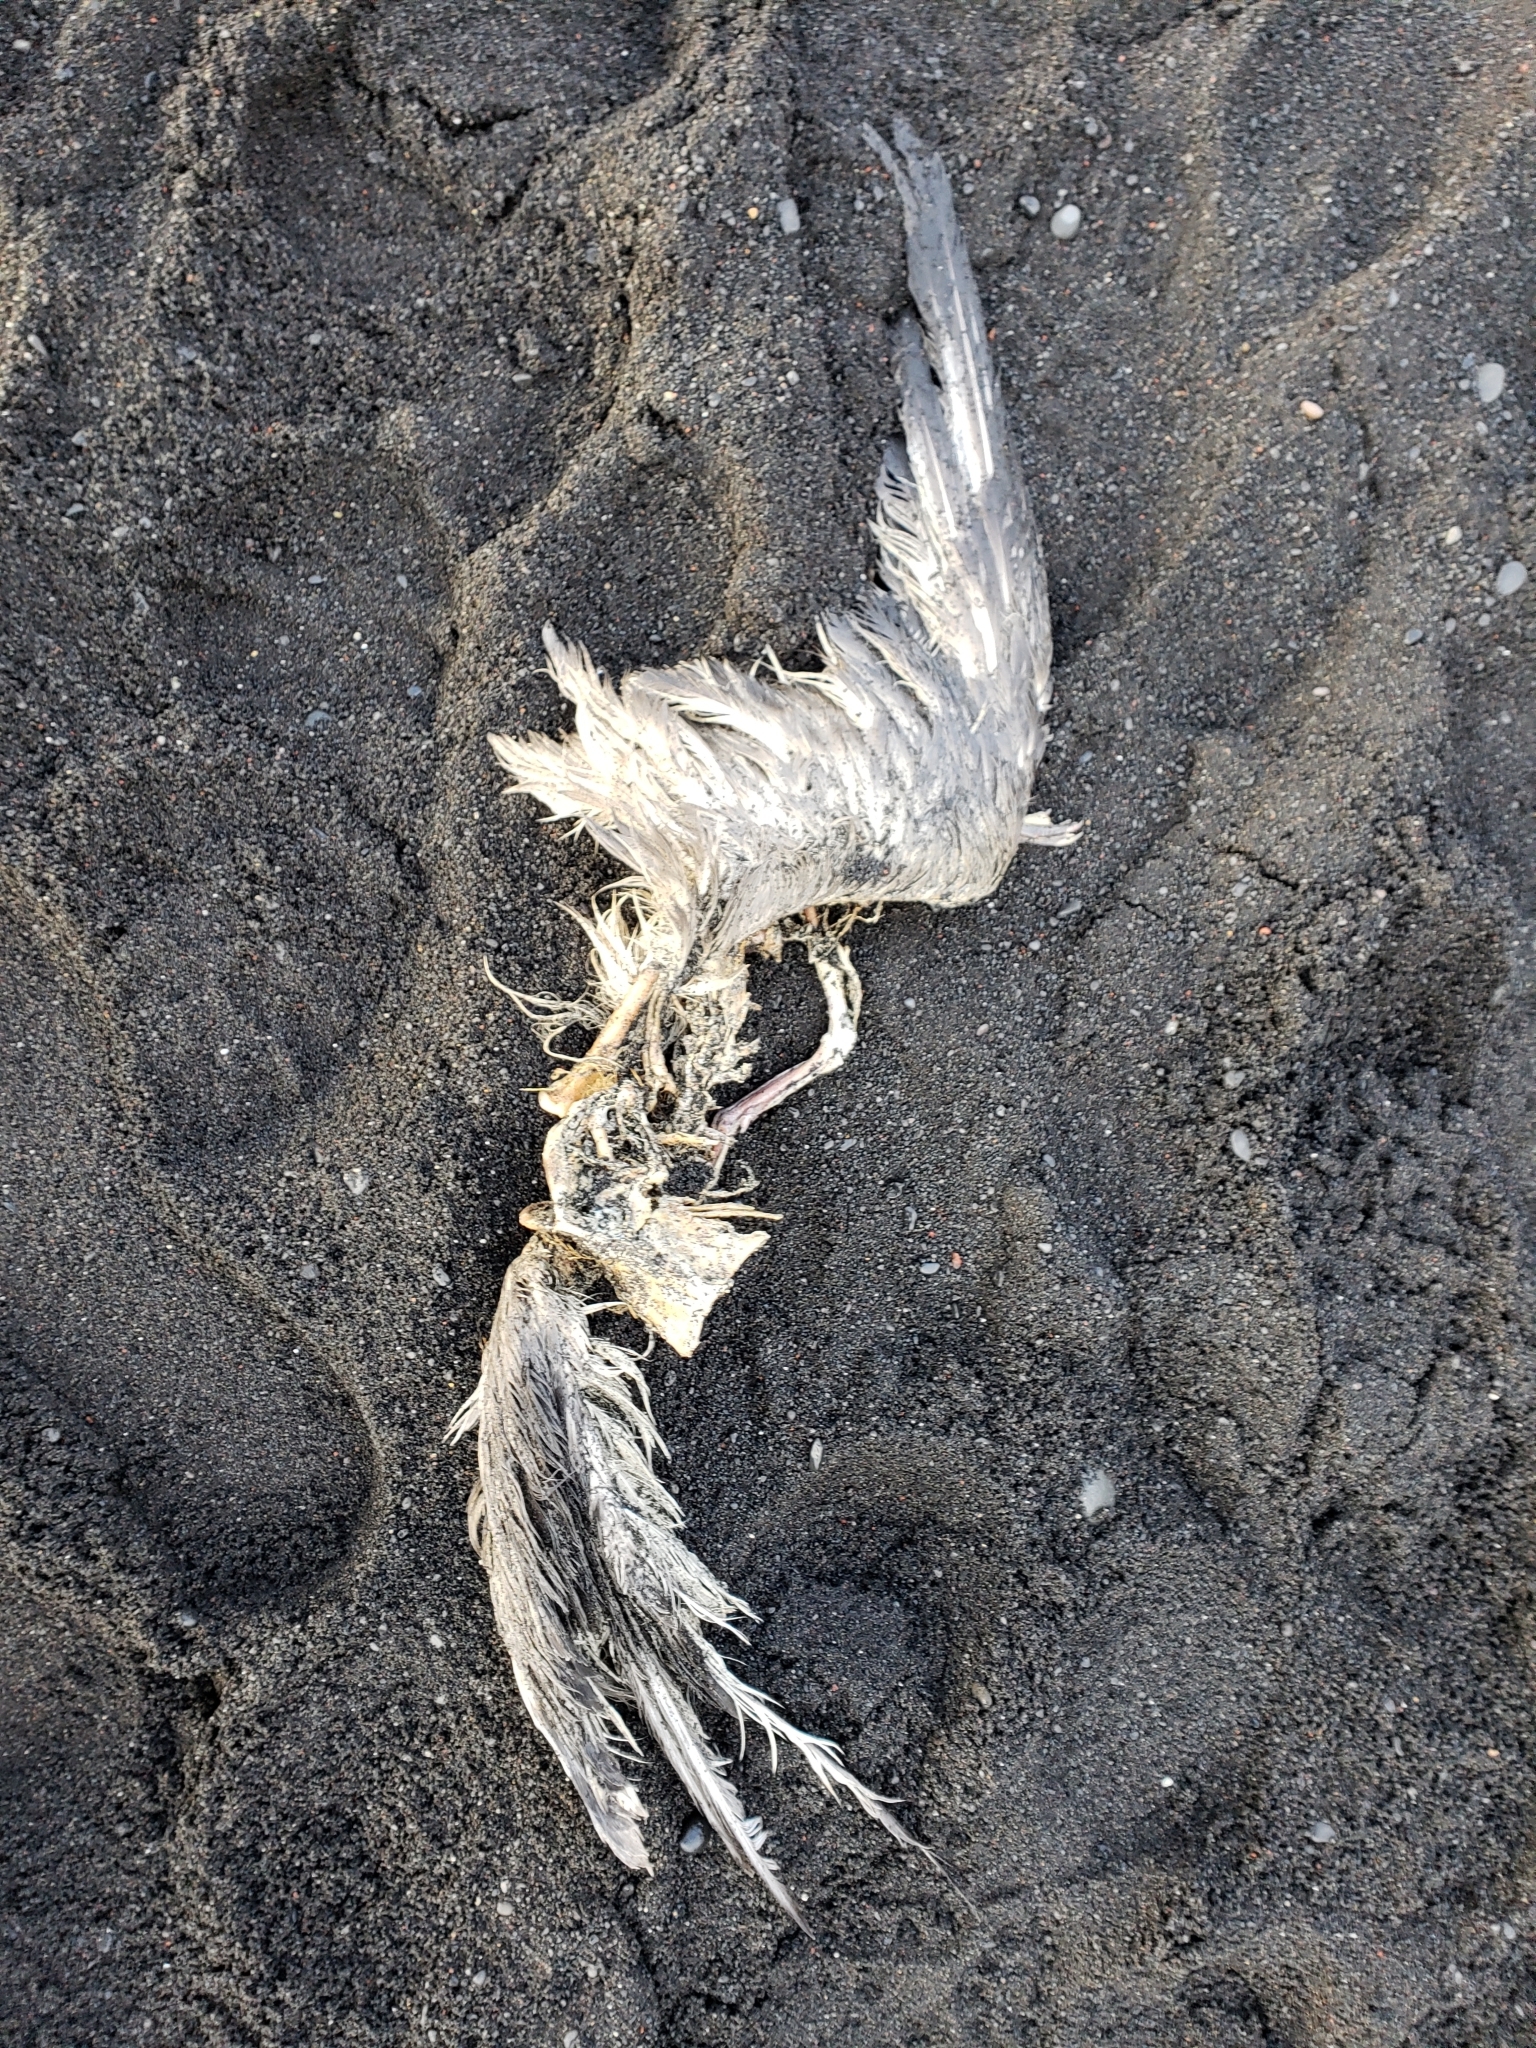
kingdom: Animalia
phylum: Chordata
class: Aves
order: Procellariiformes
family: Procellariidae
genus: Fulmarus
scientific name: Fulmarus glacialis
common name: Northern fulmar
